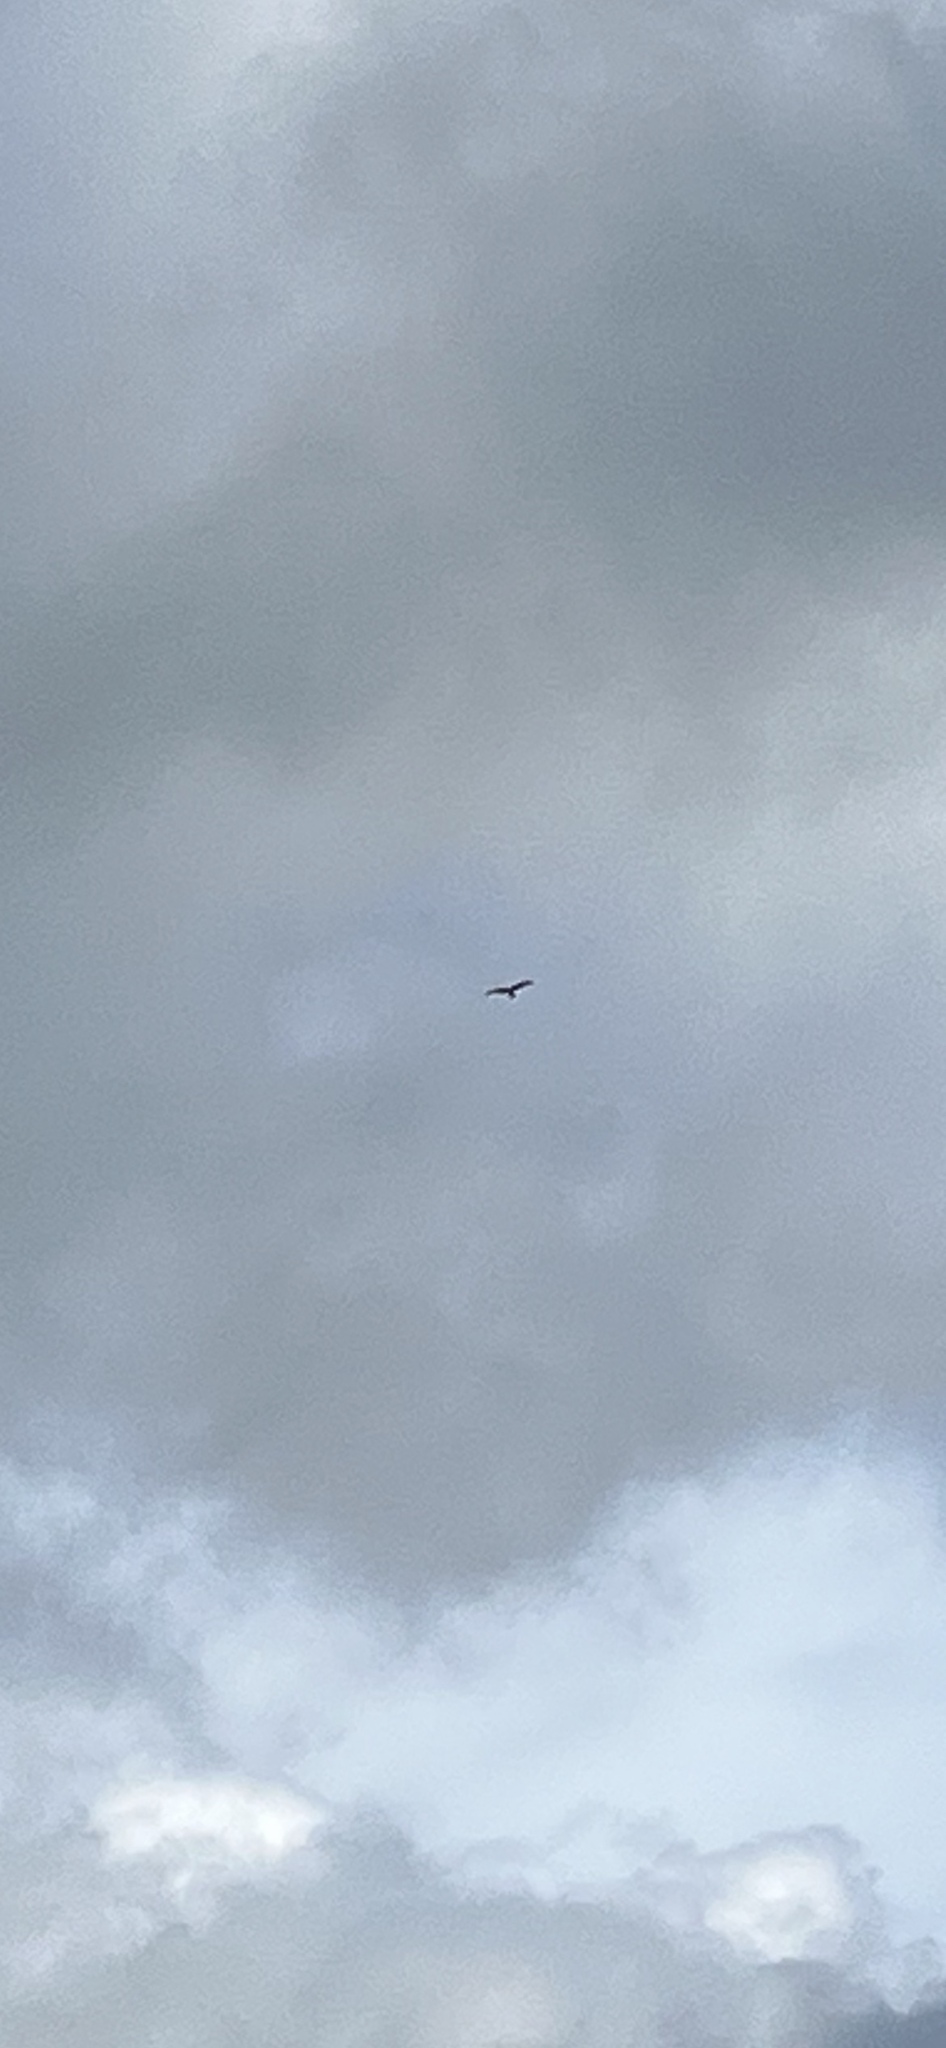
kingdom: Animalia
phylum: Chordata
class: Aves
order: Accipitriformes
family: Accipitridae
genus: Milvus
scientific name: Milvus milvus
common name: Red kite
